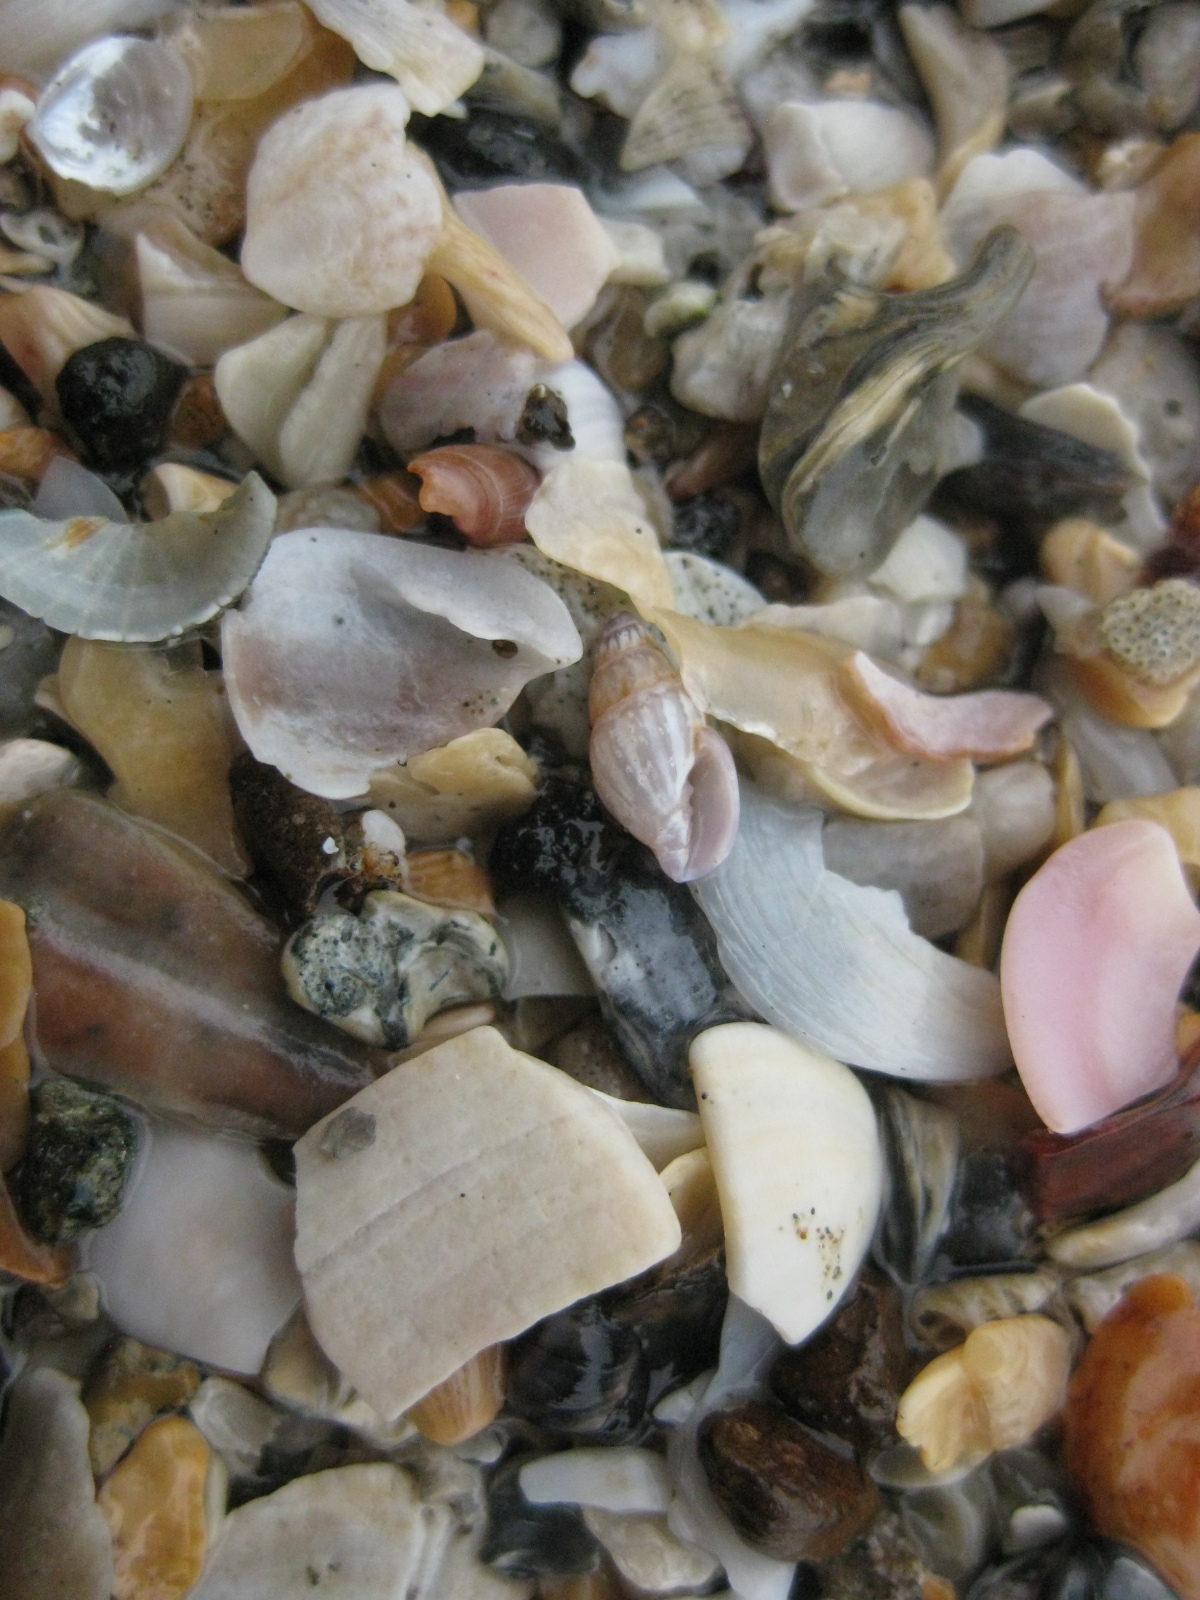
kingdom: Animalia
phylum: Mollusca
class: Gastropoda
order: Neogastropoda
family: Costellariidae
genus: Austromitra
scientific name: Austromitra rubiginosa
